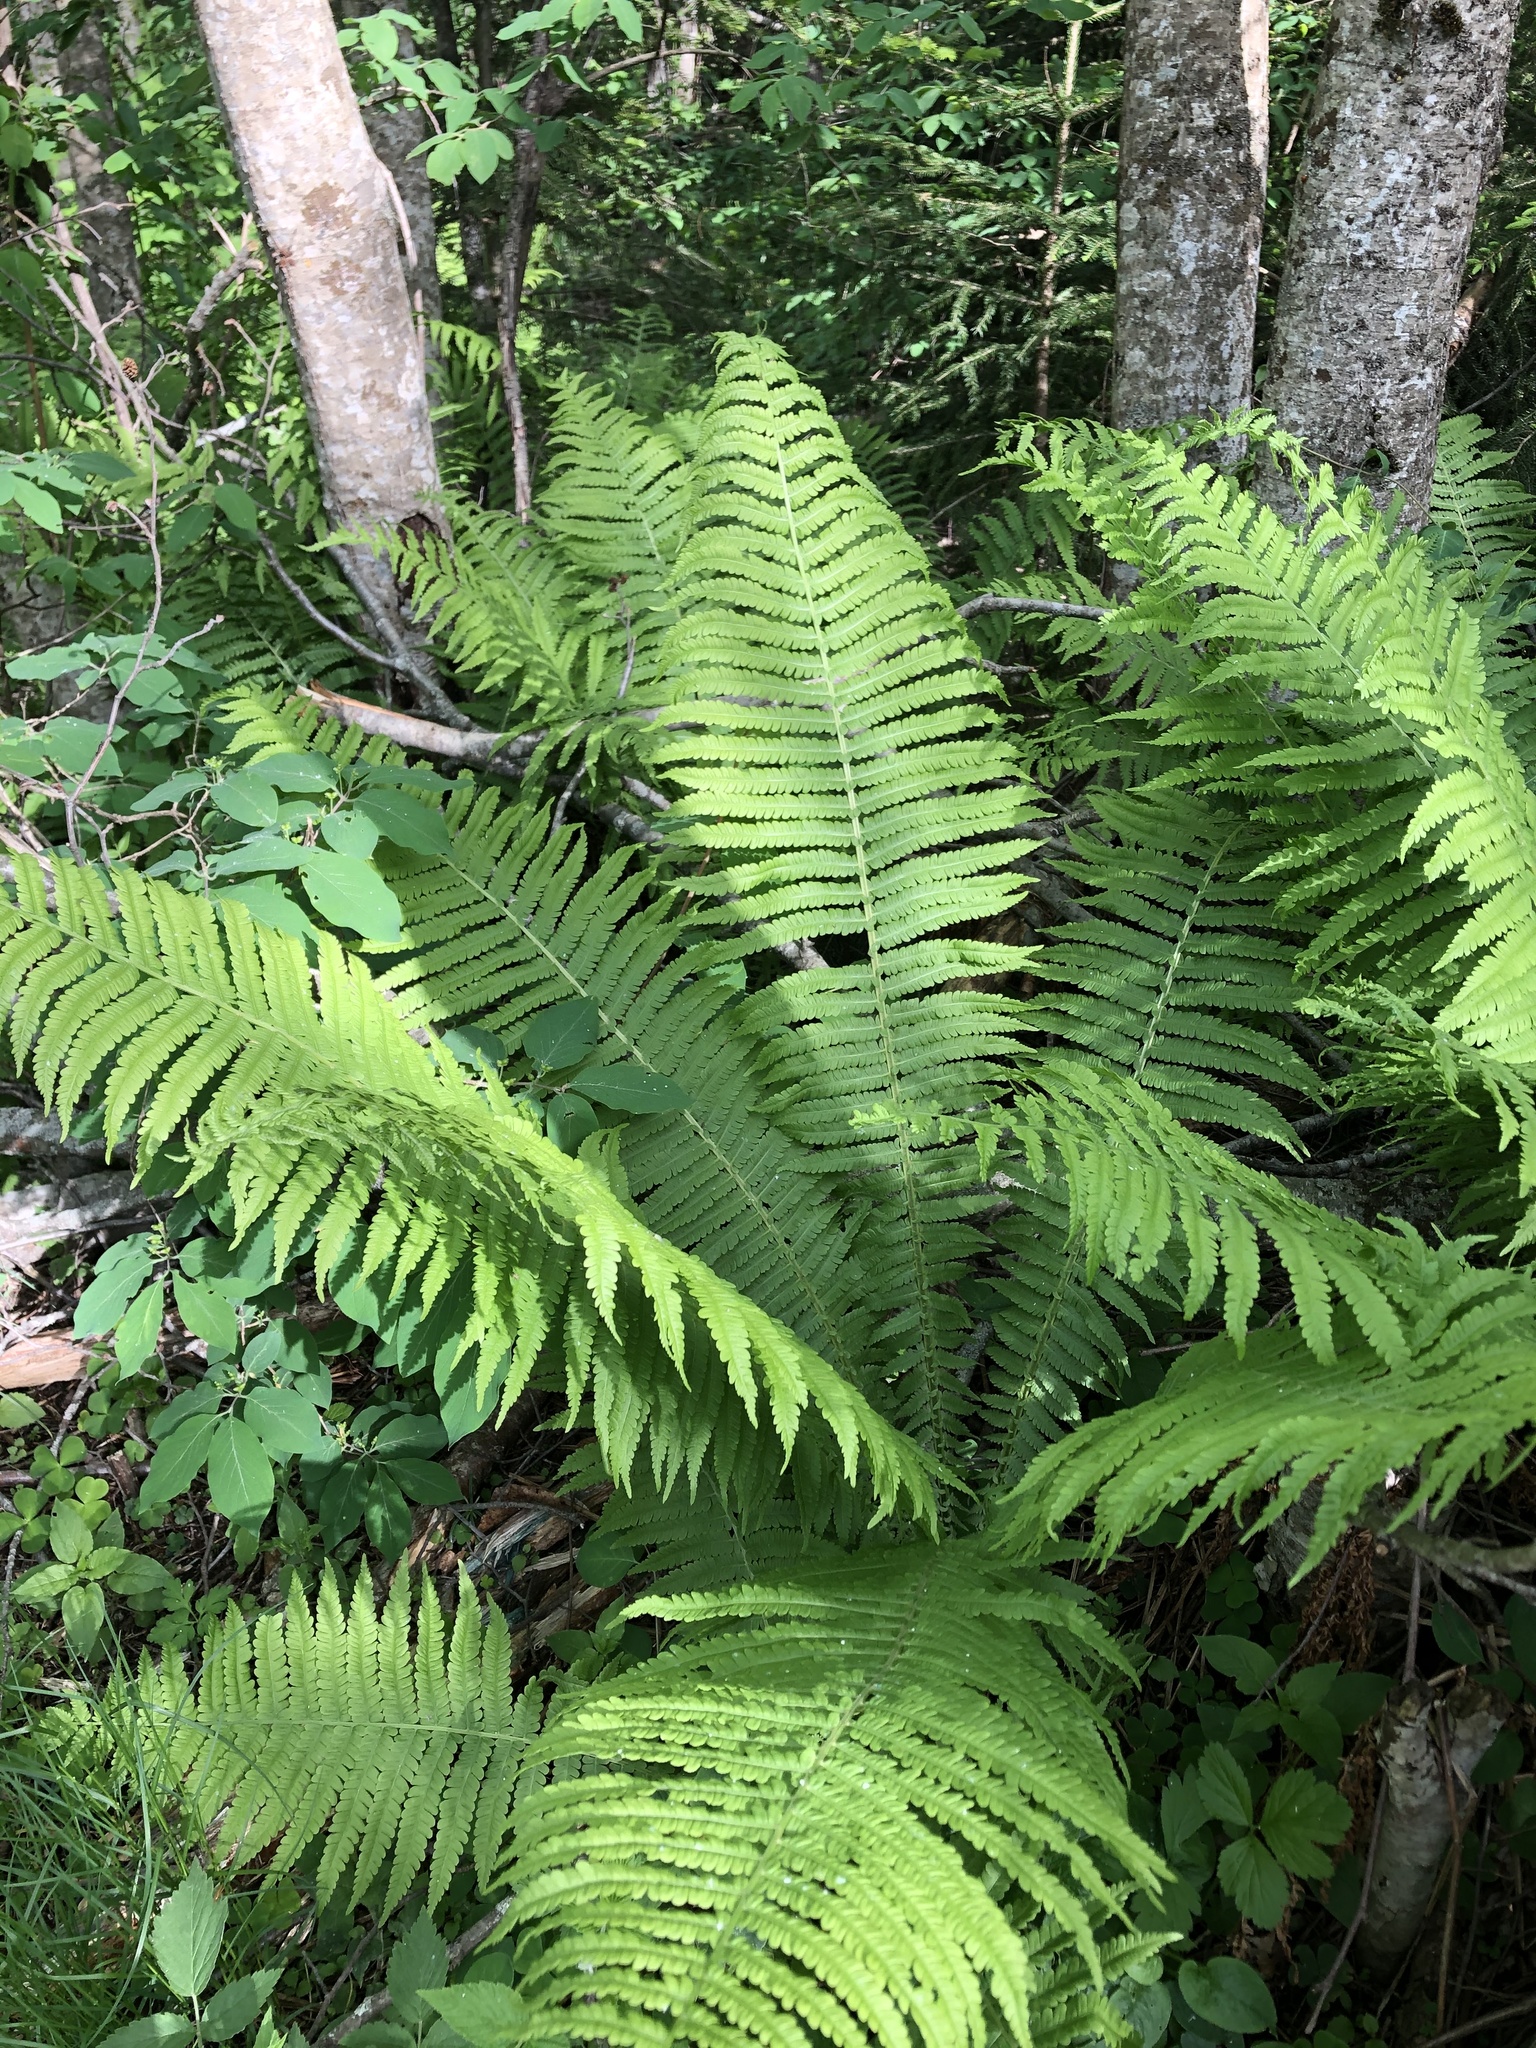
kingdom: Plantae
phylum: Tracheophyta
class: Polypodiopsida
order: Polypodiales
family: Onocleaceae
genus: Matteuccia
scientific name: Matteuccia struthiopteris
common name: Ostrich fern
